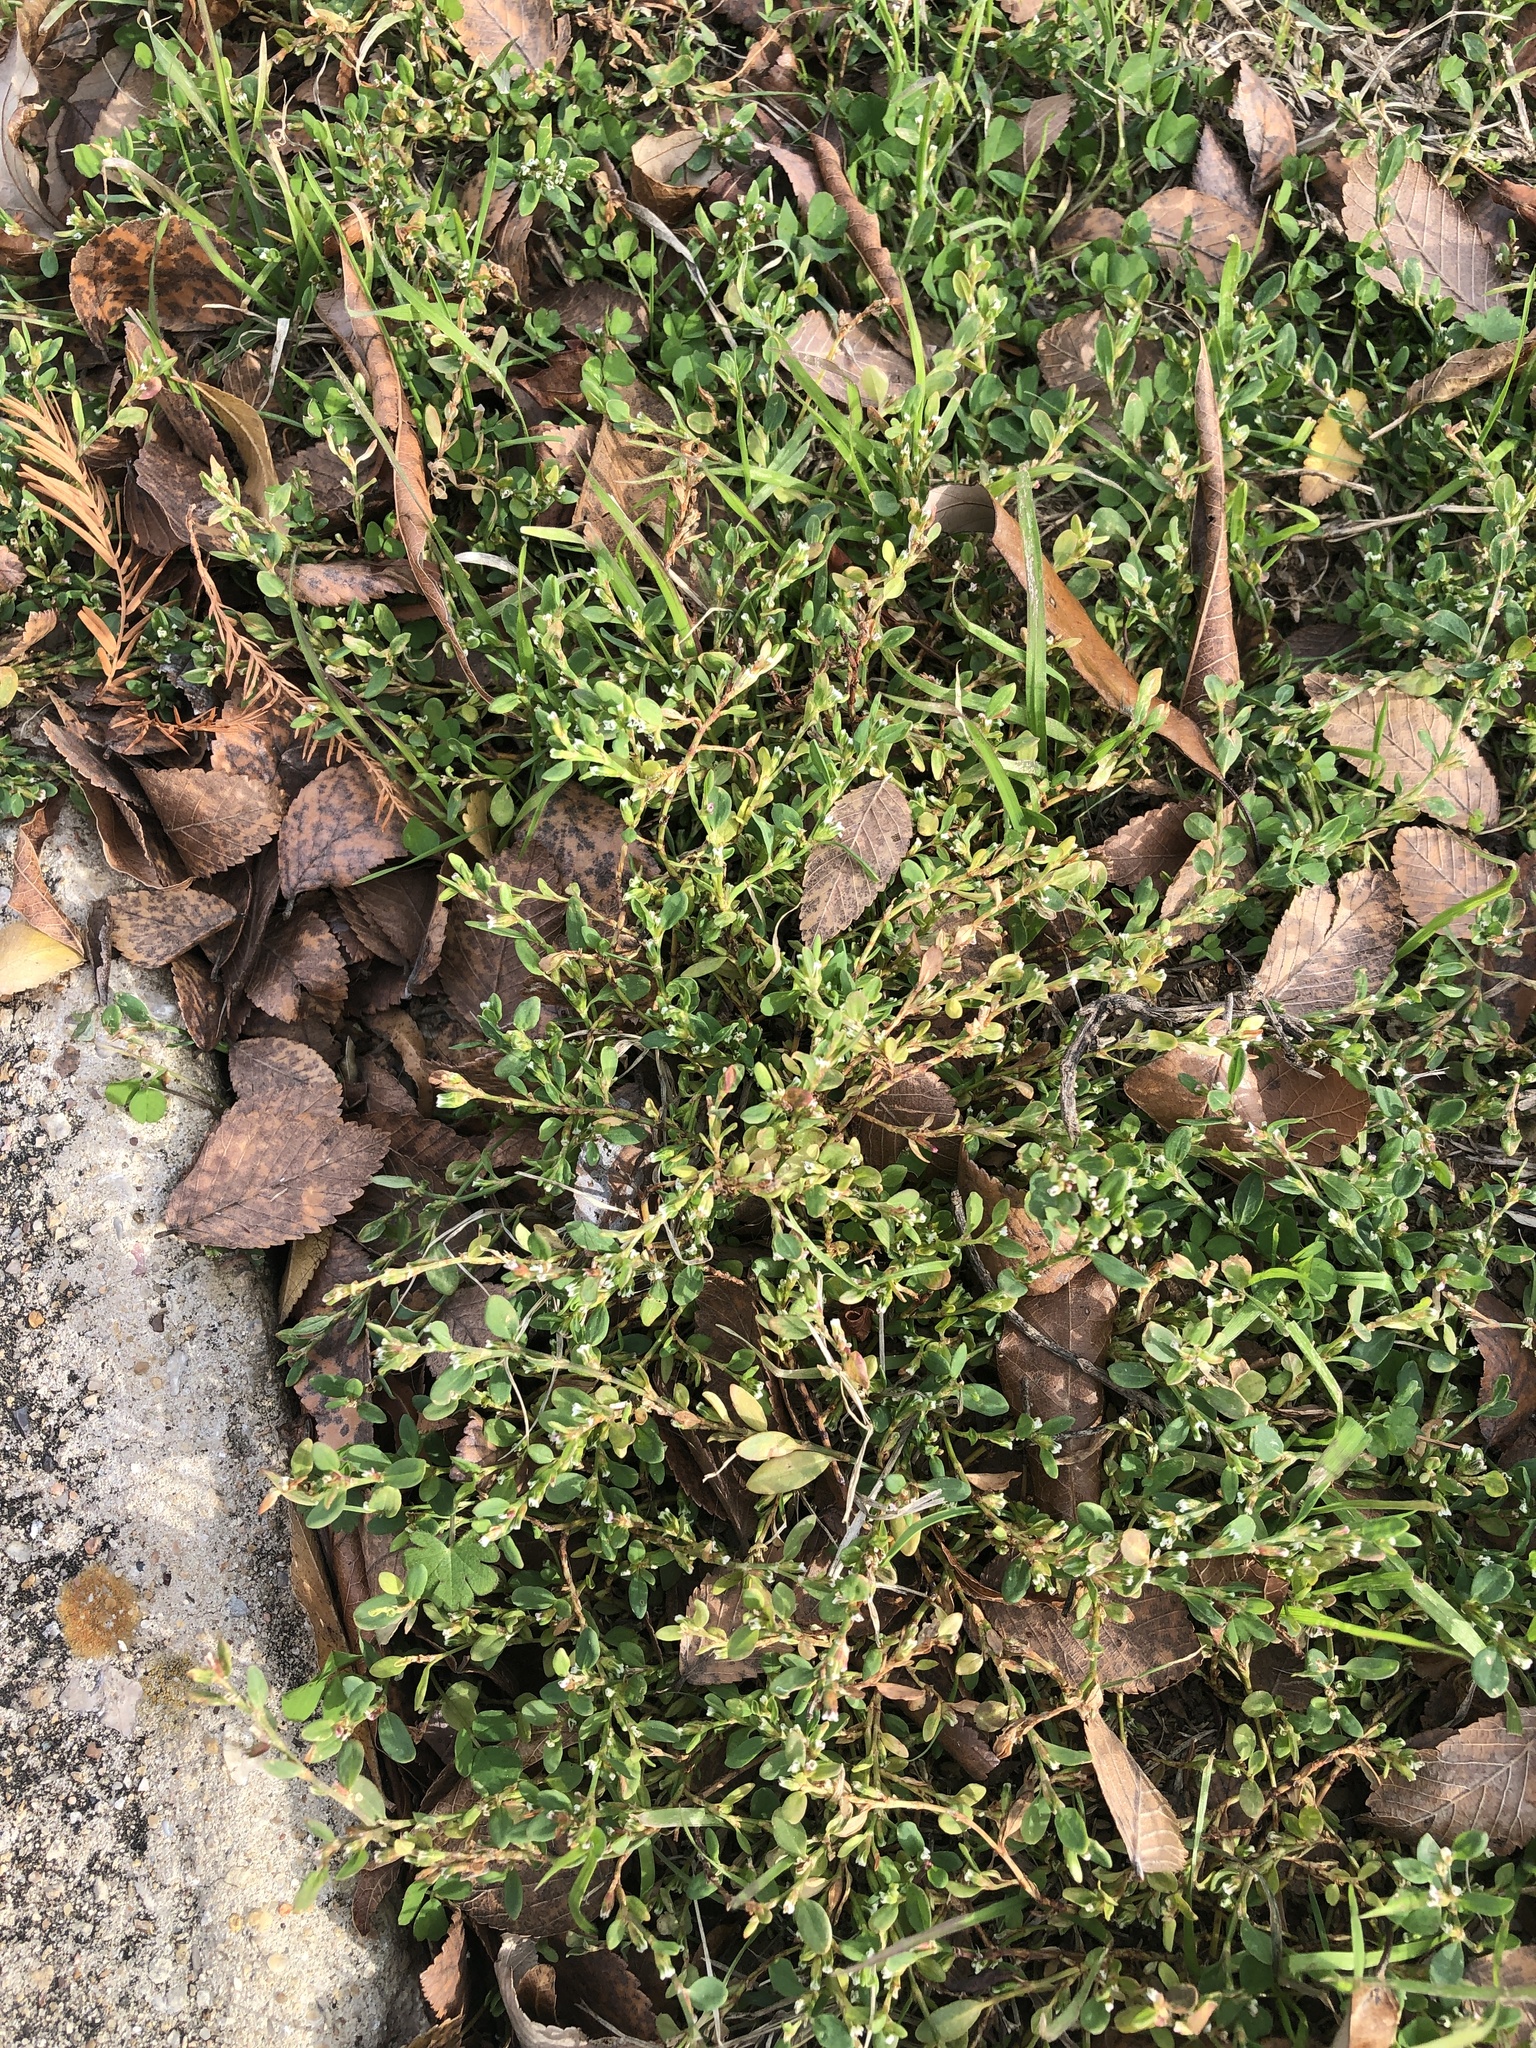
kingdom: Plantae
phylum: Tracheophyta
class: Magnoliopsida
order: Caryophyllales
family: Polygonaceae
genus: Polygonum
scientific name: Polygonum aviculare
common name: Prostrate knotweed
